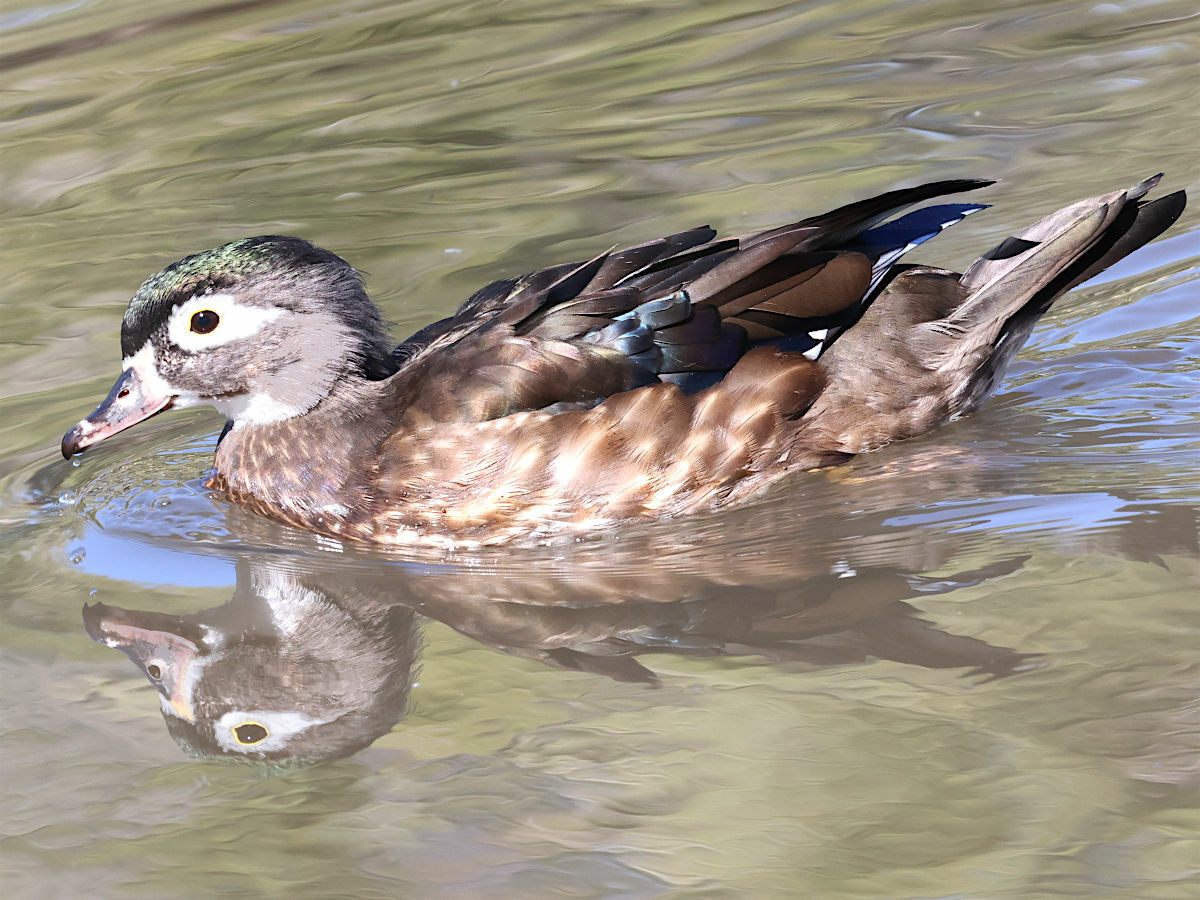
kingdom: Animalia
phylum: Chordata
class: Aves
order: Anseriformes
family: Anatidae
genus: Aix
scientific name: Aix sponsa
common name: Wood duck
